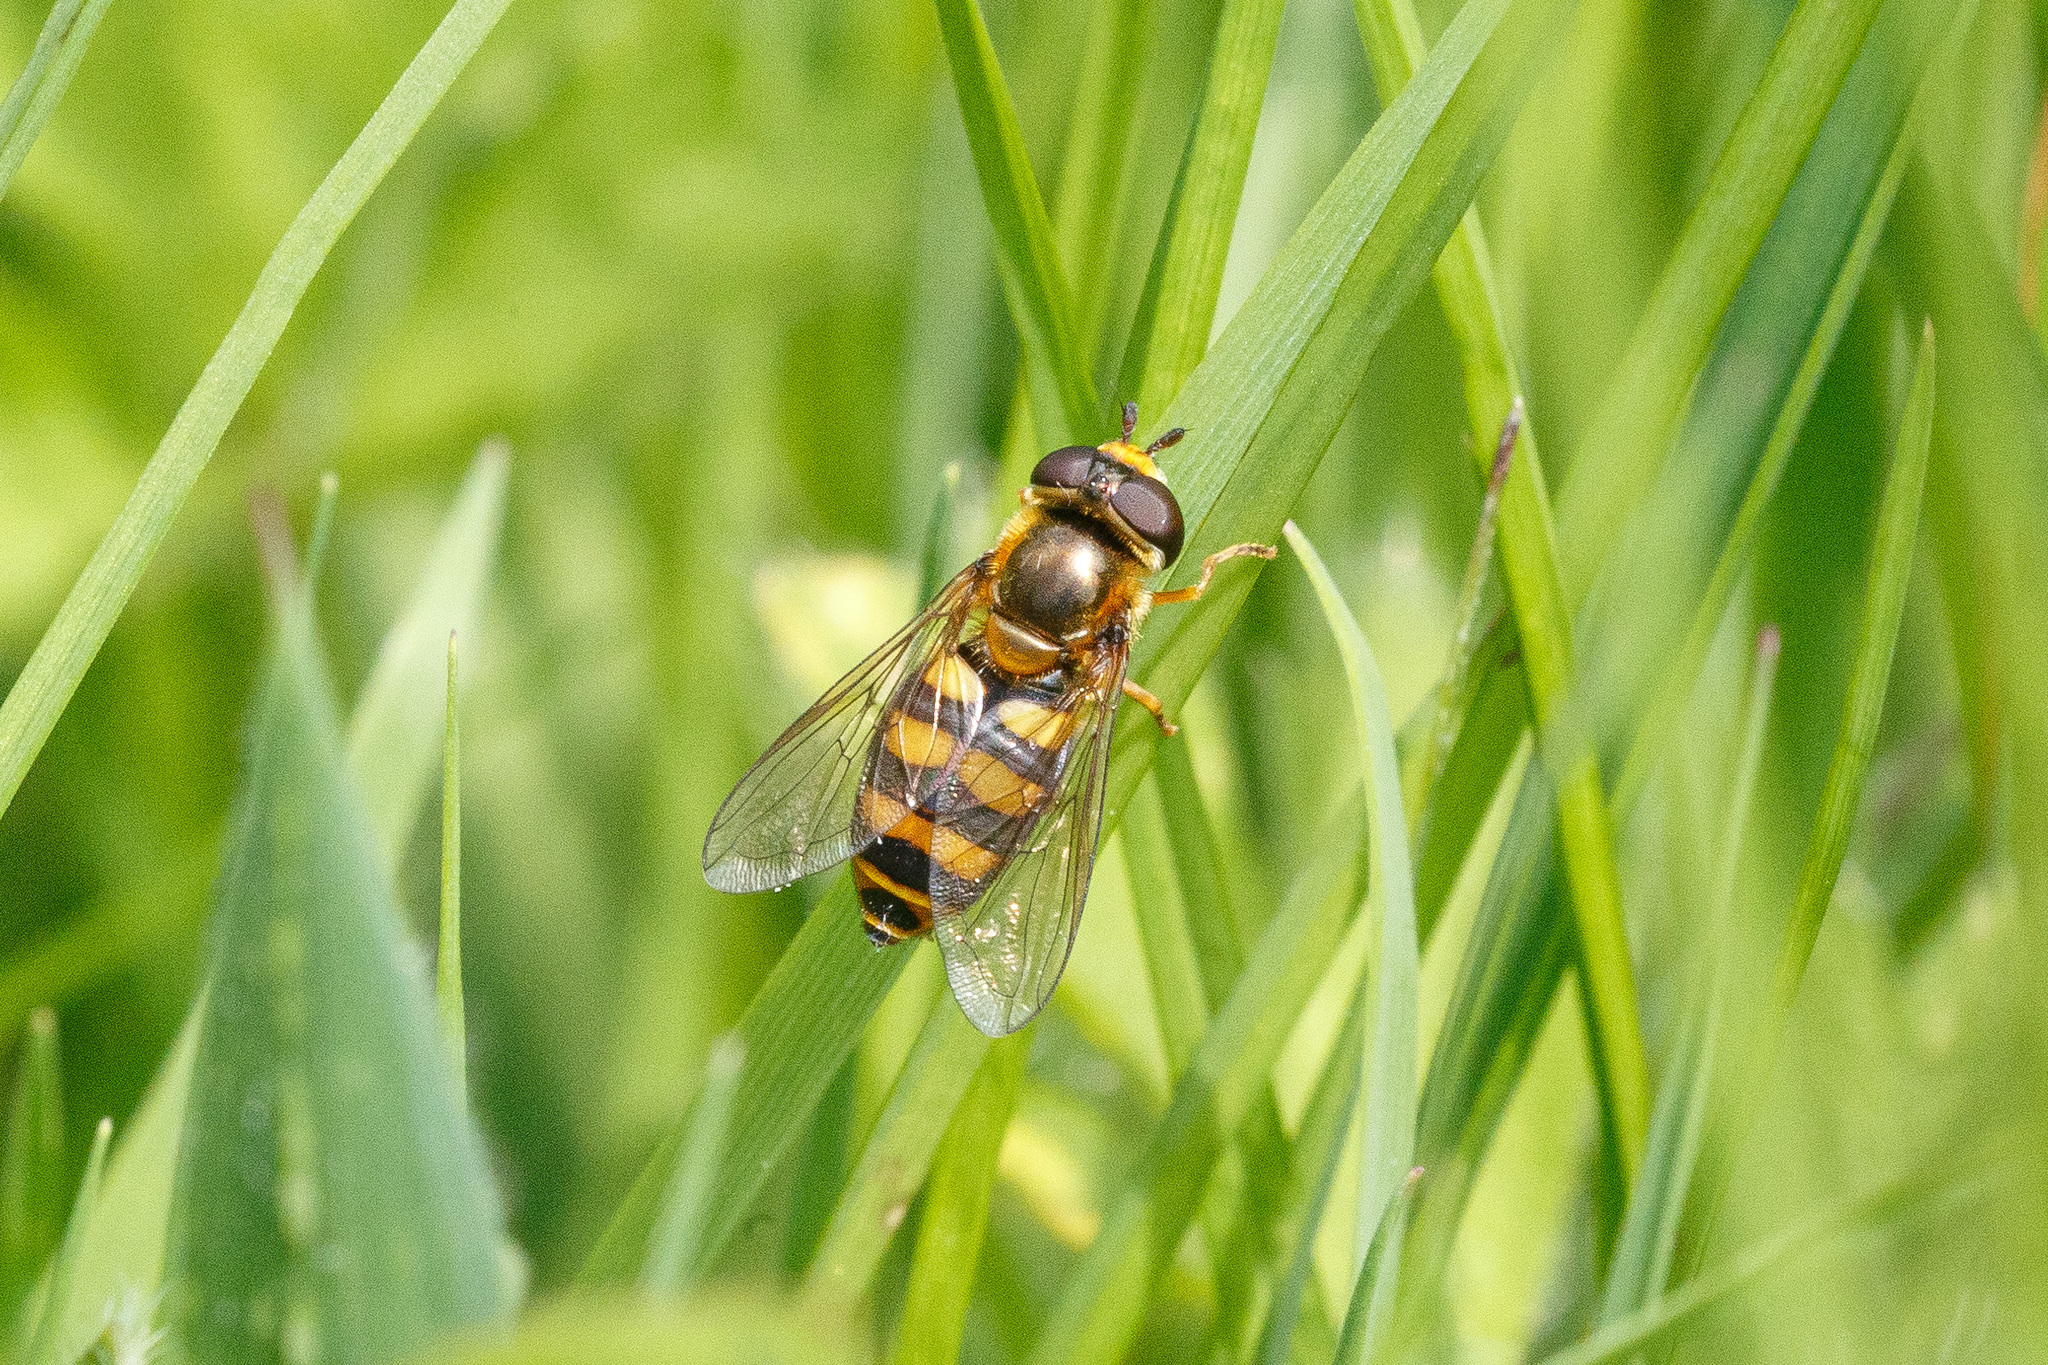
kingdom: Animalia
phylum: Arthropoda
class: Insecta
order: Diptera
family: Syrphidae
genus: Eupeodes
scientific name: Eupeodes latifasciatus
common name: Variable aphideater
